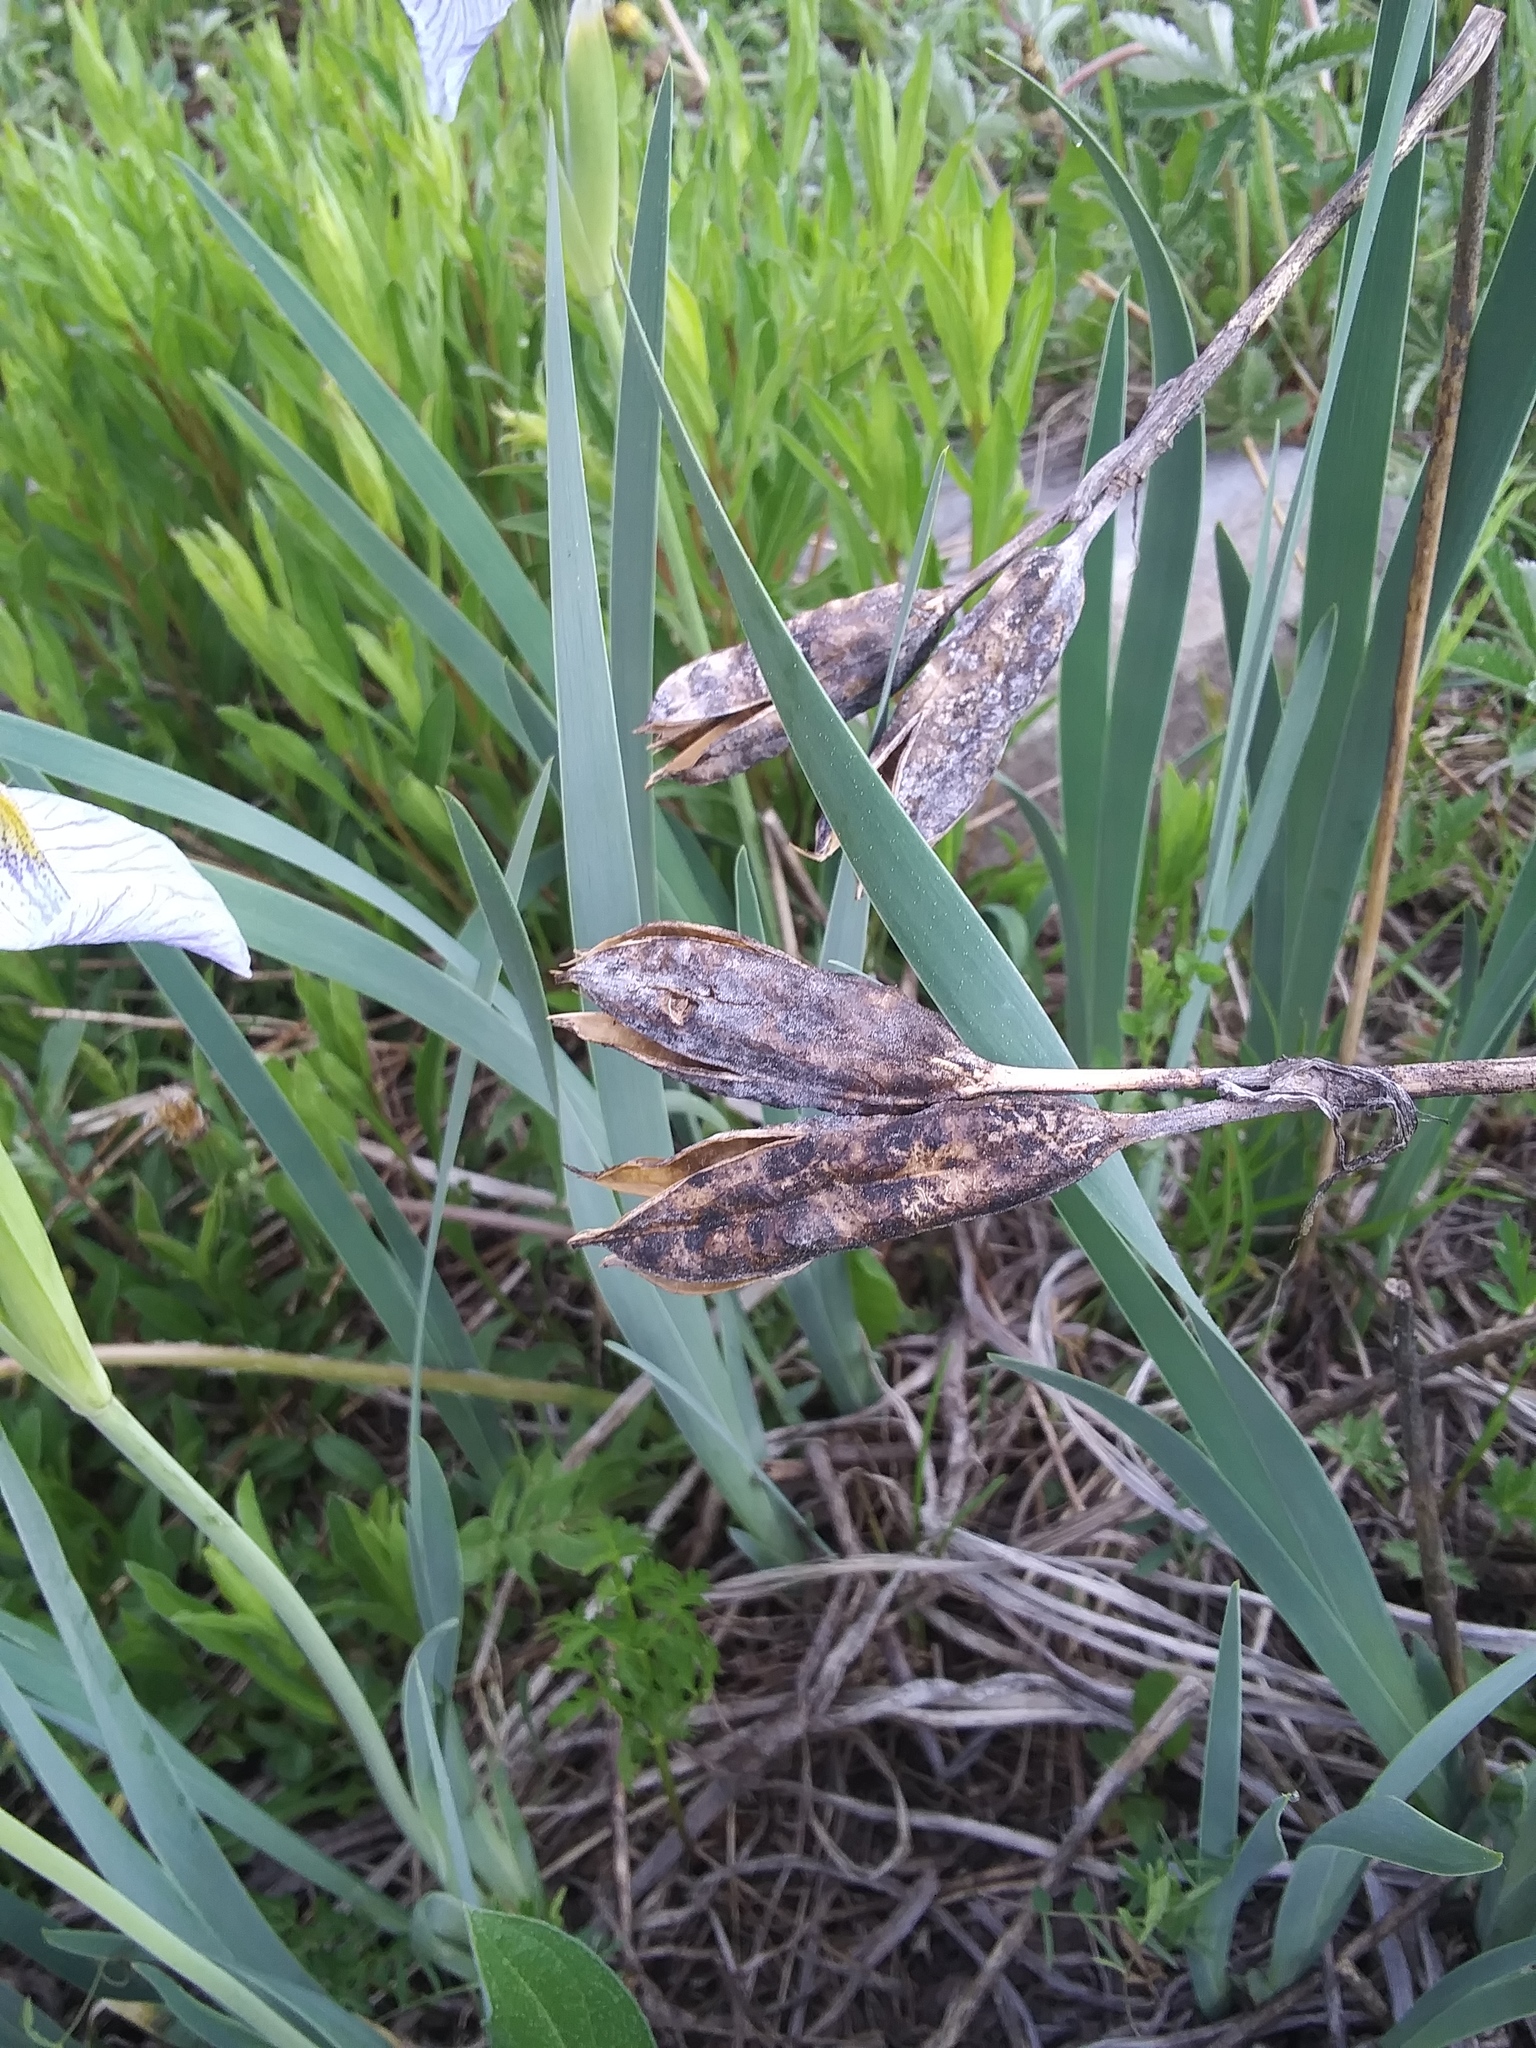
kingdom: Plantae
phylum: Tracheophyta
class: Liliopsida
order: Asparagales
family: Iridaceae
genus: Iris
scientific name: Iris missouriensis
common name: Rocky mountain iris
